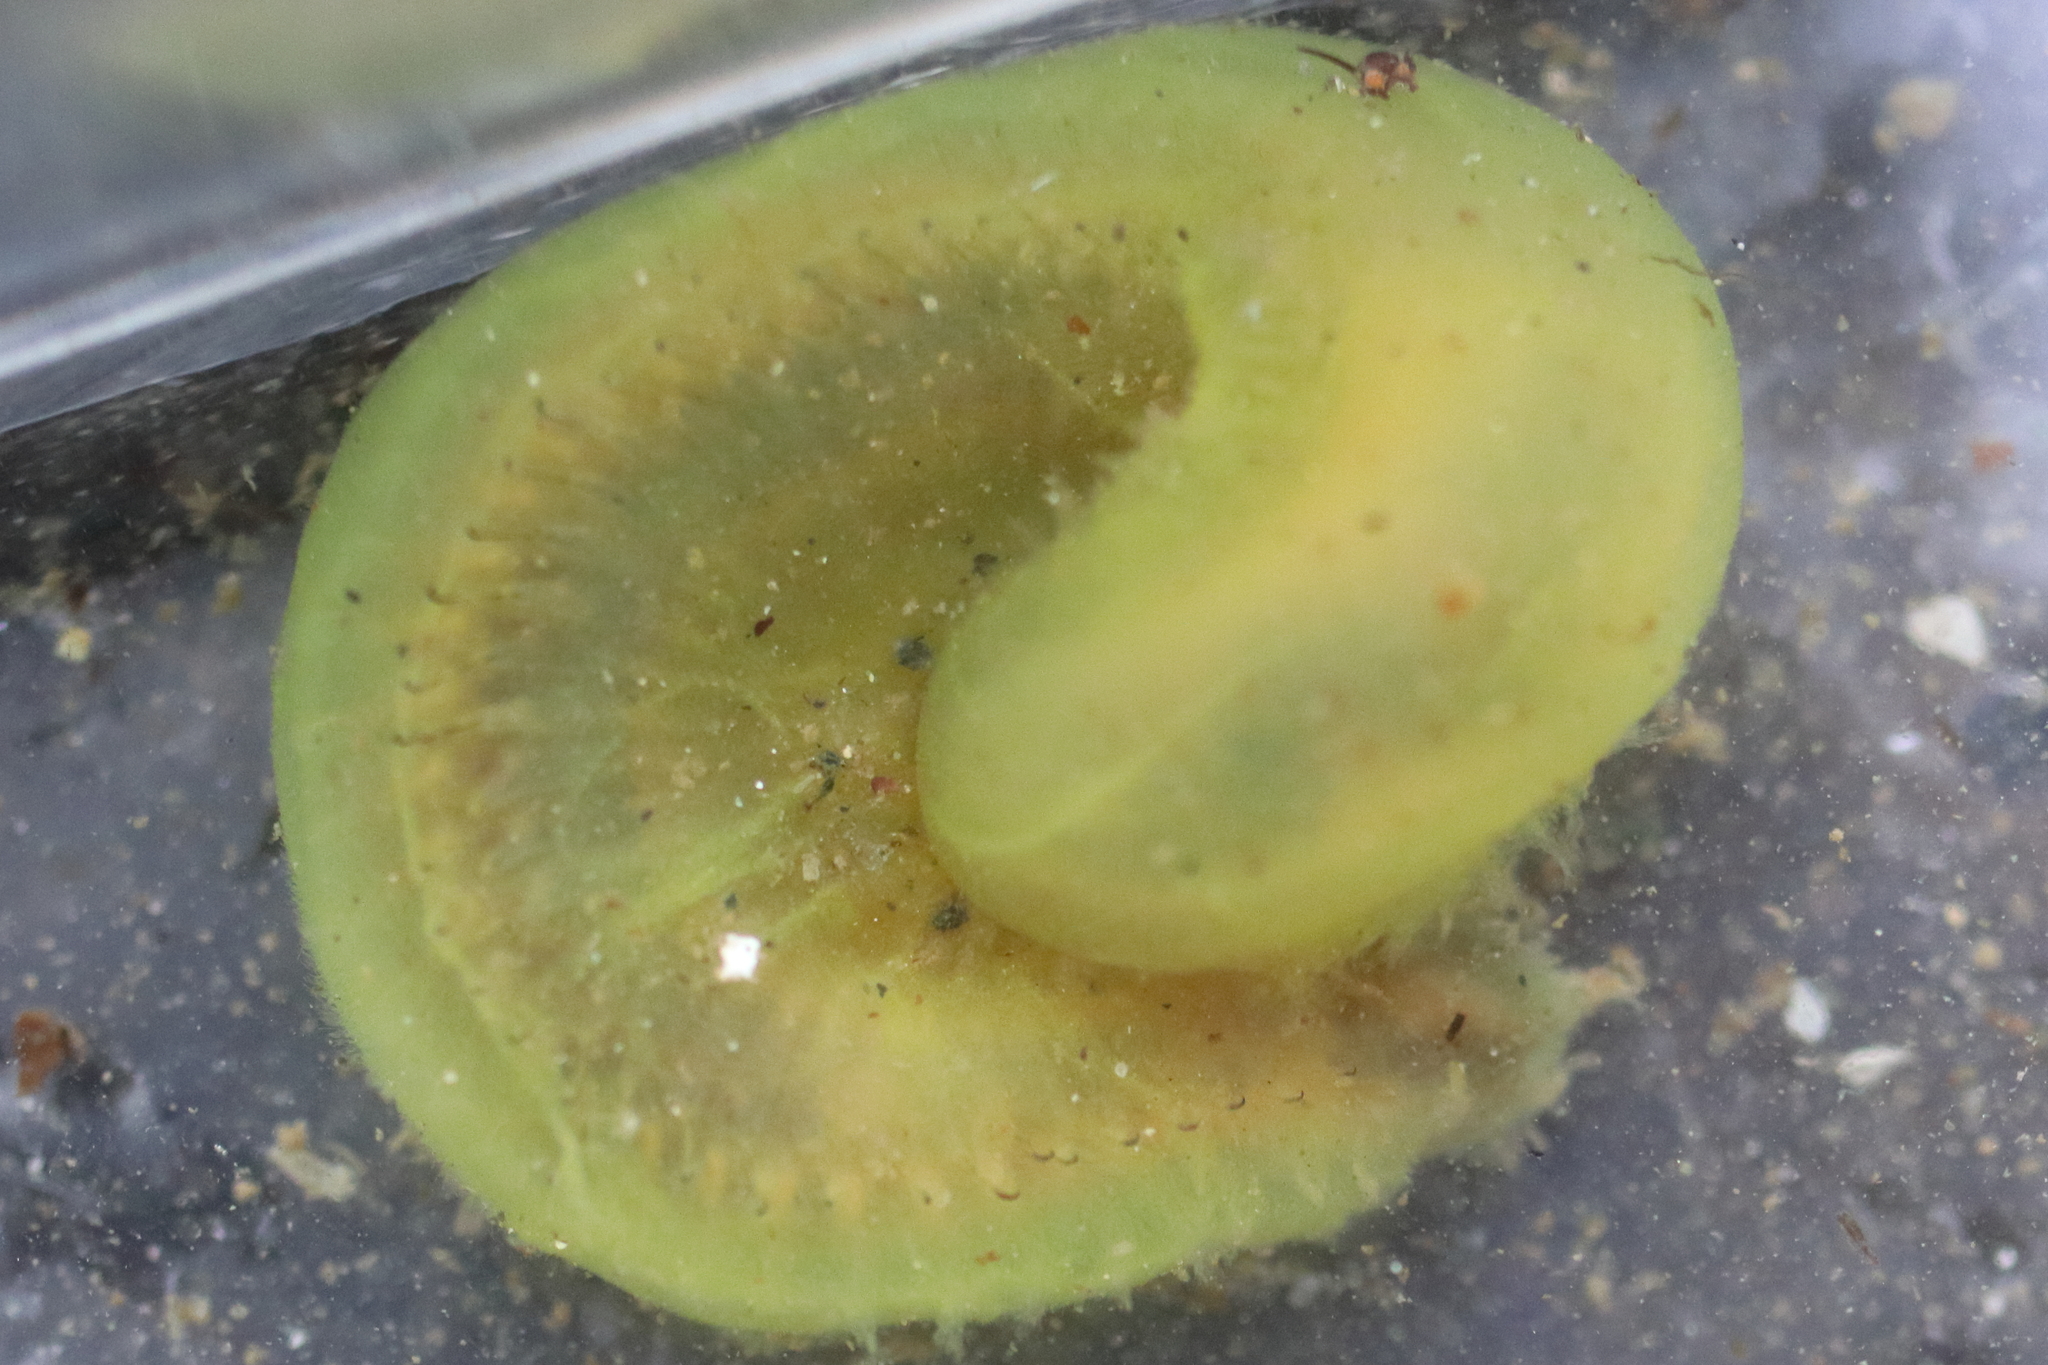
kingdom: Animalia
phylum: Annelida
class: Polychaeta
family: Flabelligeridae
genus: Flabelligera
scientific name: Flabelligera infundibularis
